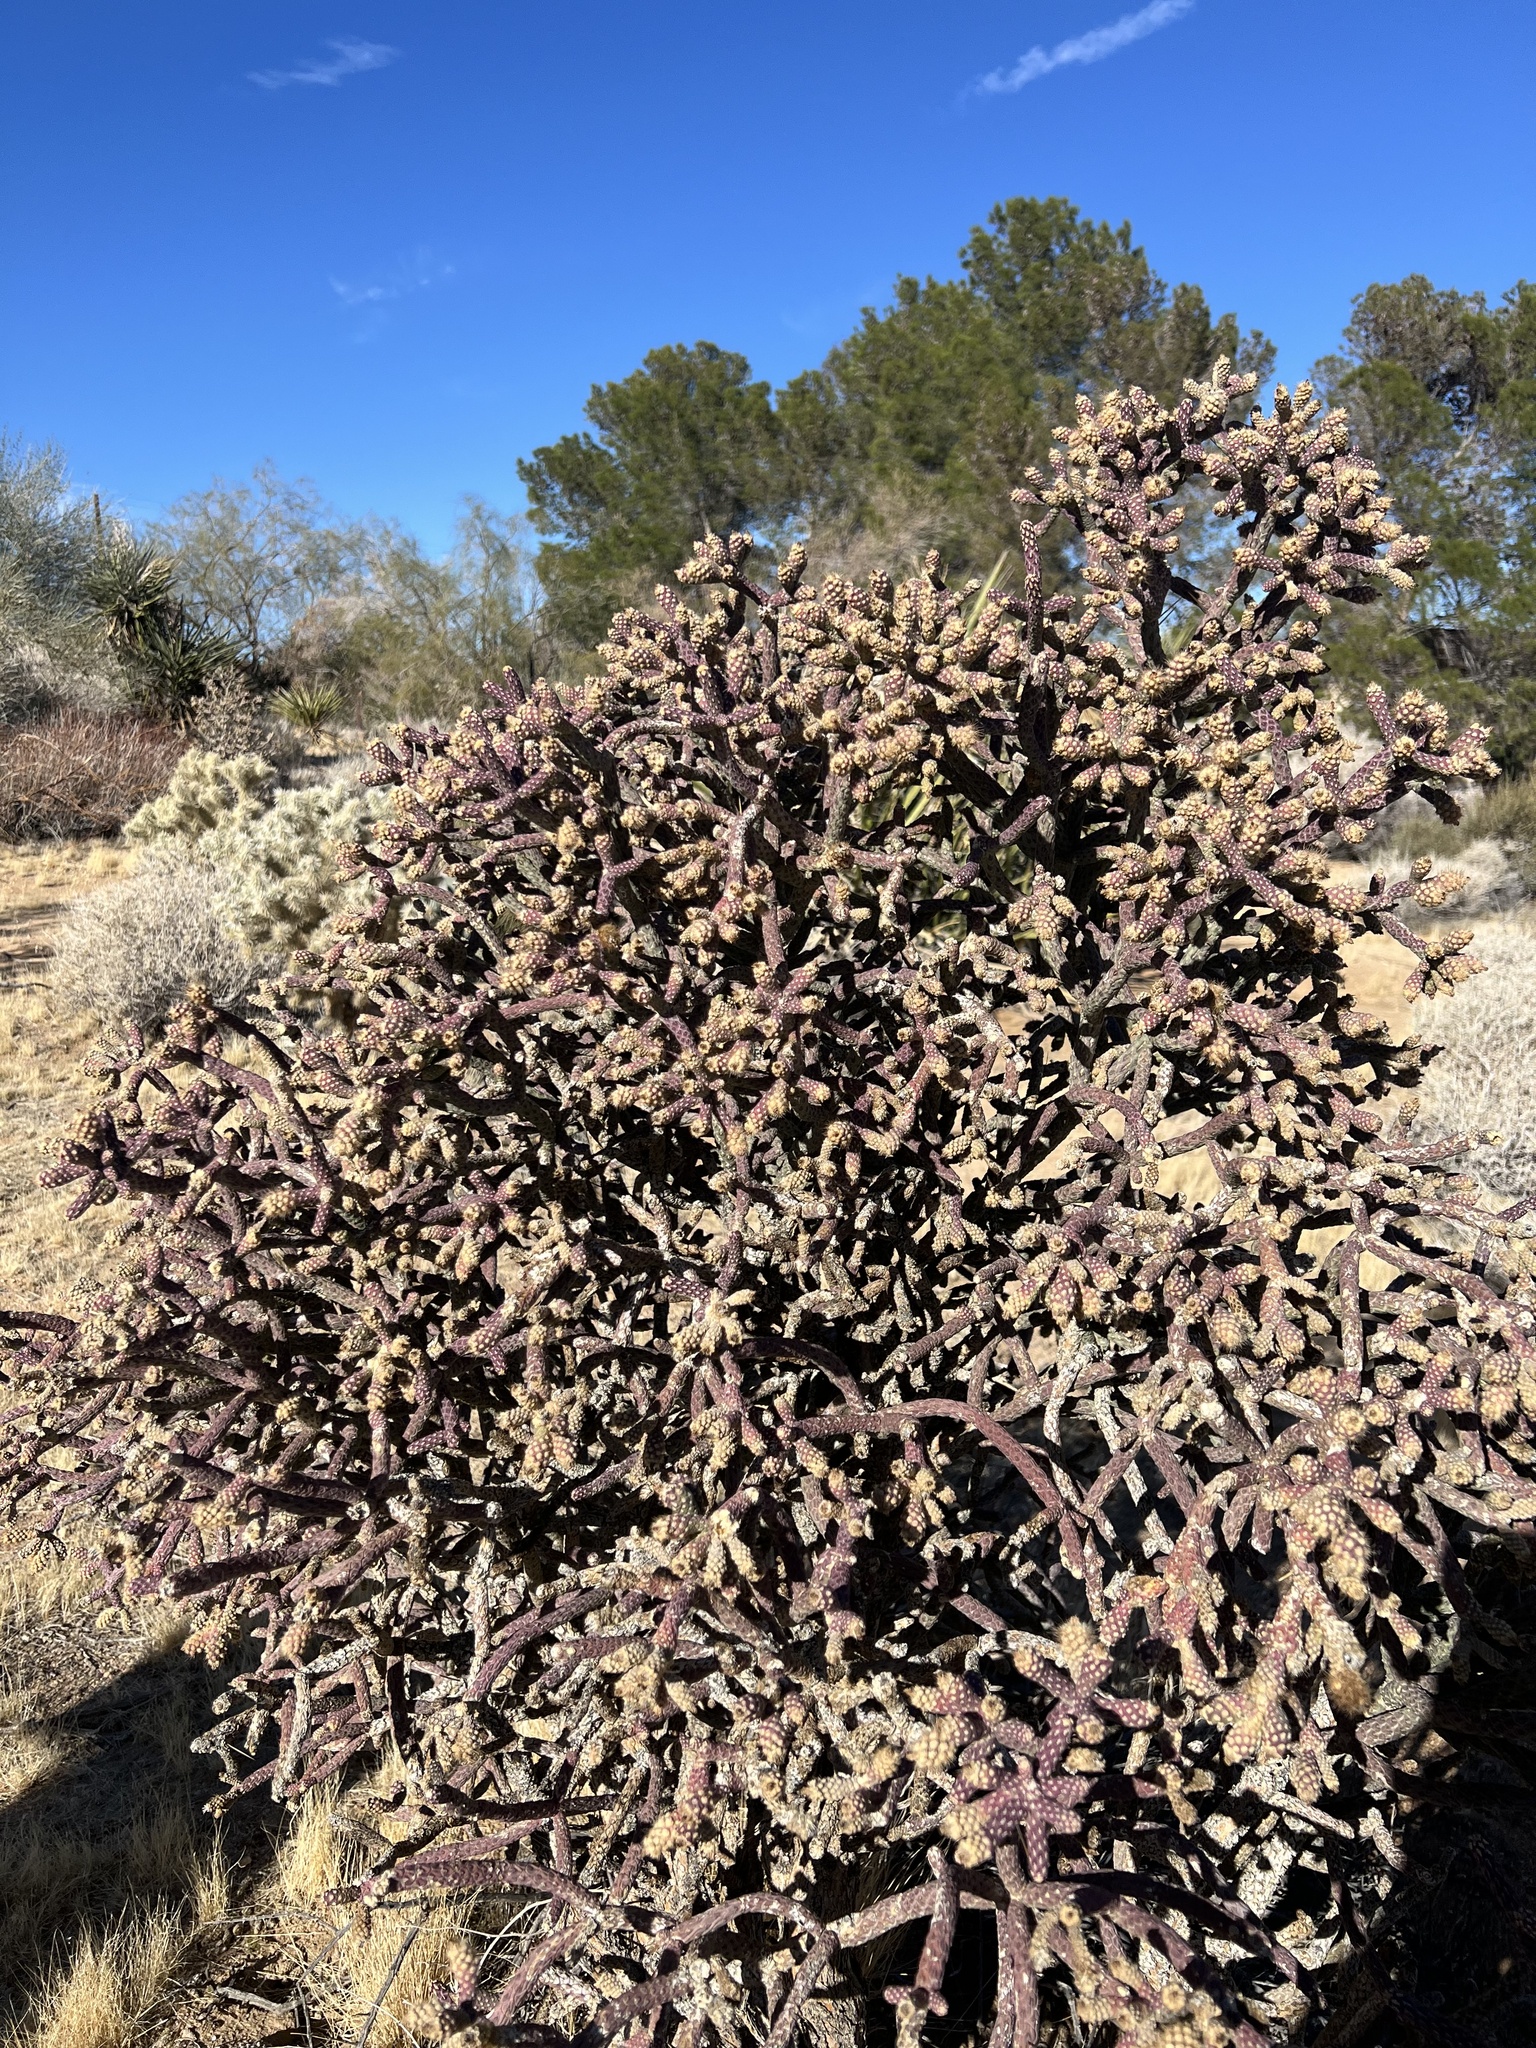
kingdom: Plantae
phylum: Tracheophyta
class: Magnoliopsida
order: Caryophyllales
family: Cactaceae
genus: Cylindropuntia
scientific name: Cylindropuntia ramosissima
